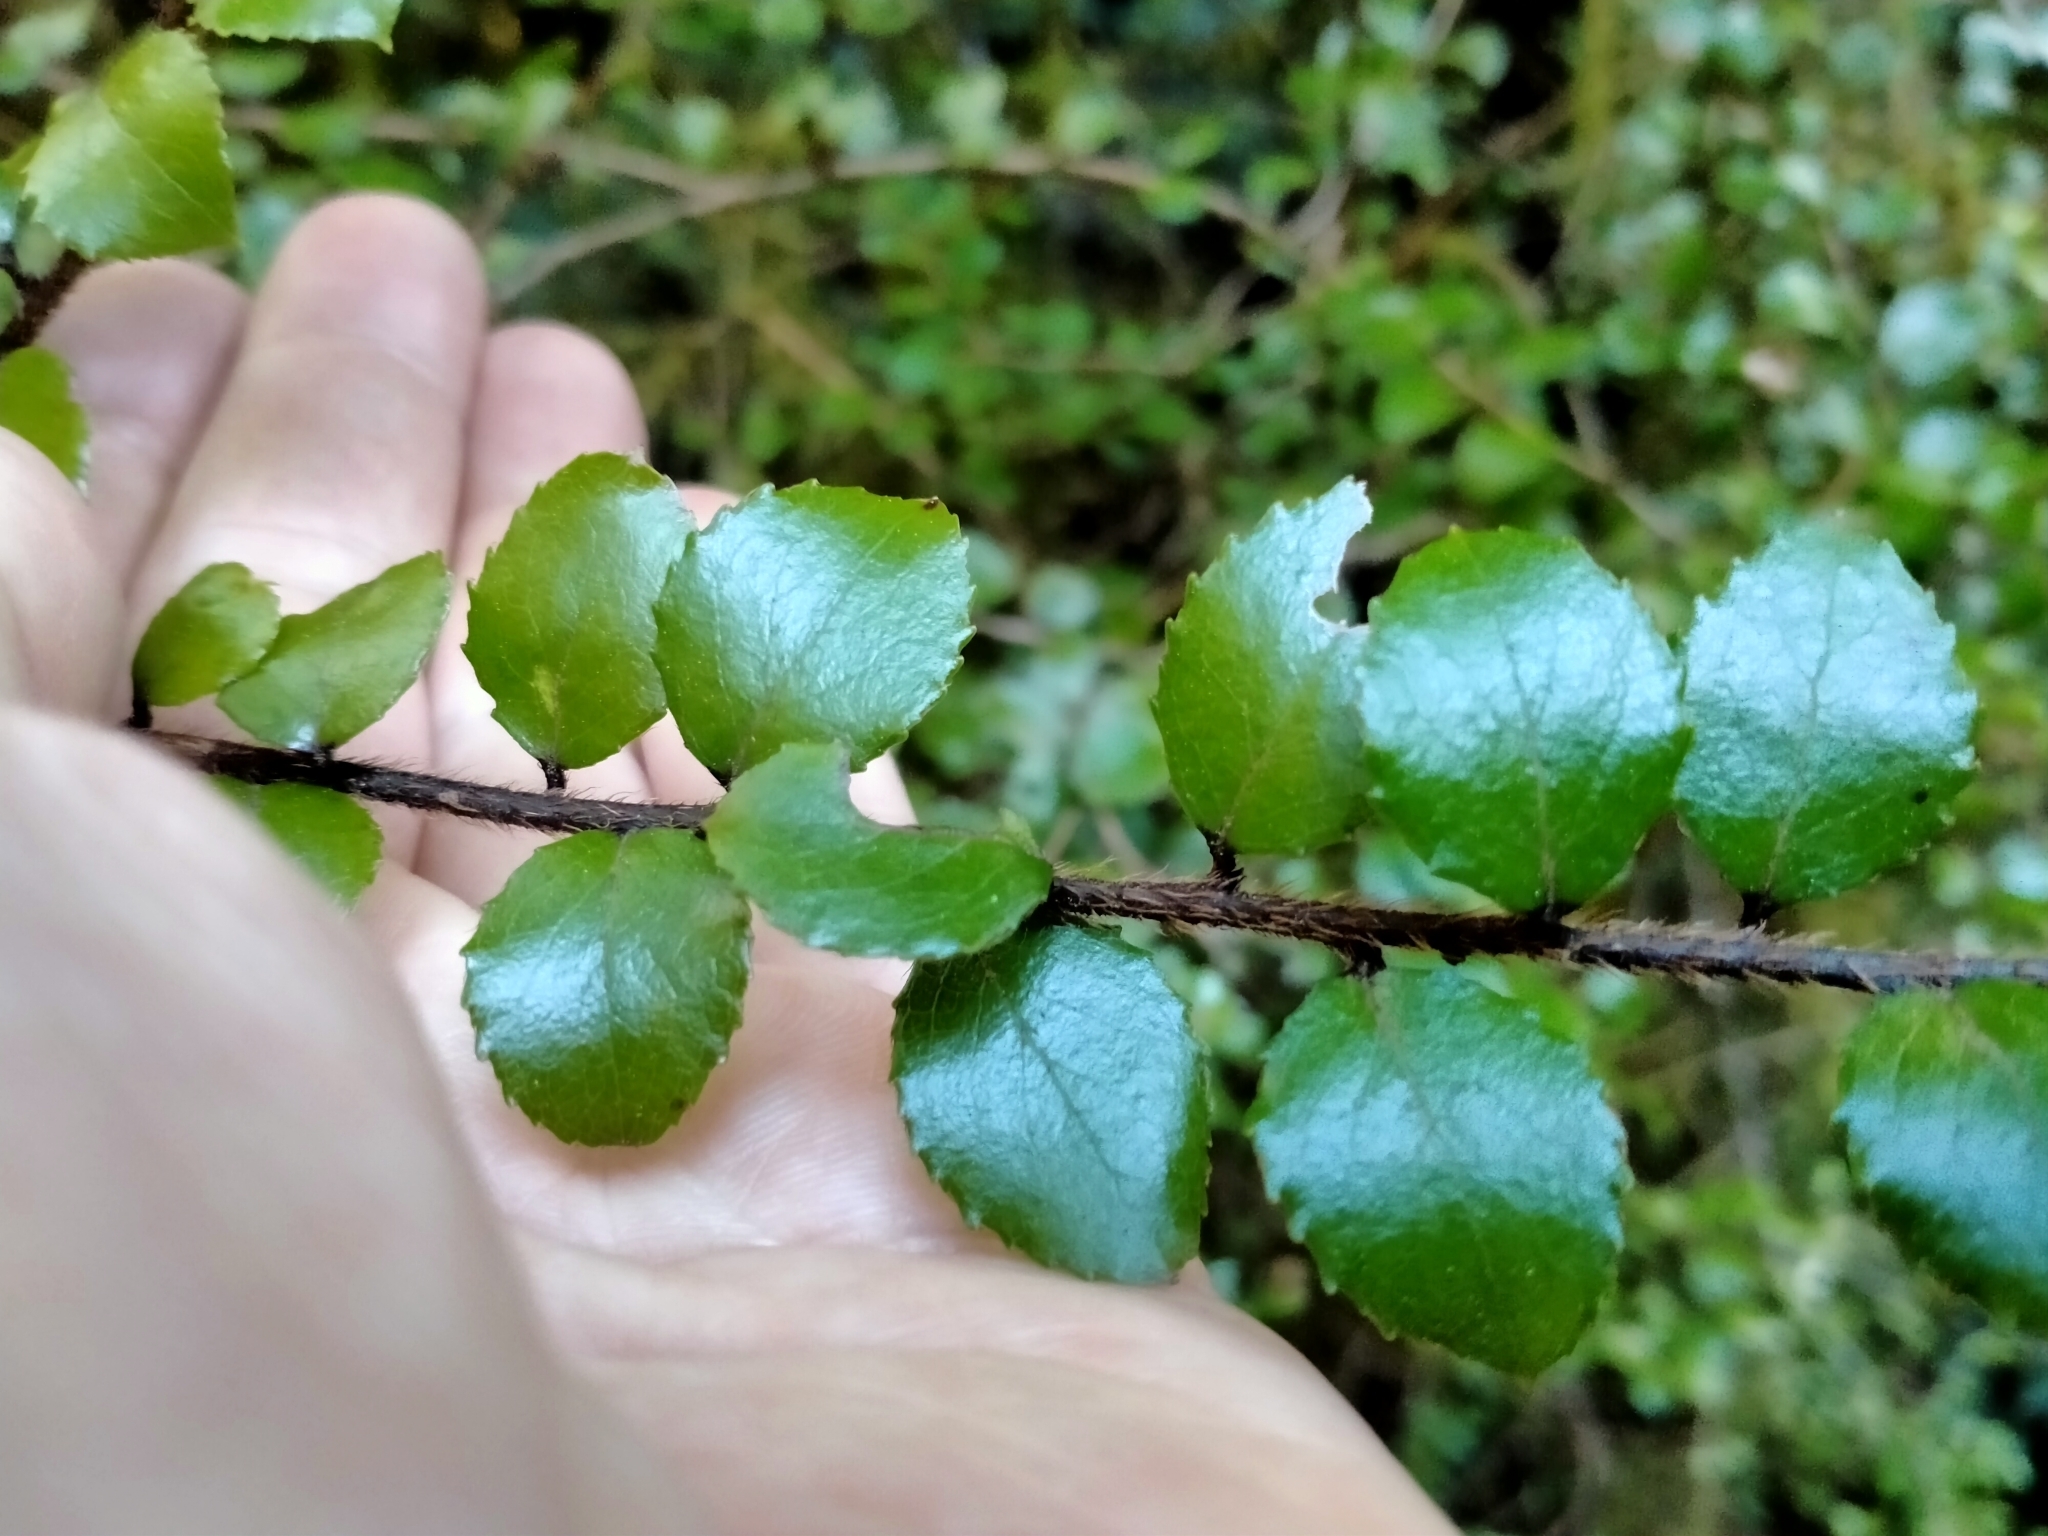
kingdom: Plantae
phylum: Tracheophyta
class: Magnoliopsida
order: Ericales
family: Ericaceae
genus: Gaultheria
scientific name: Gaultheria antipoda
